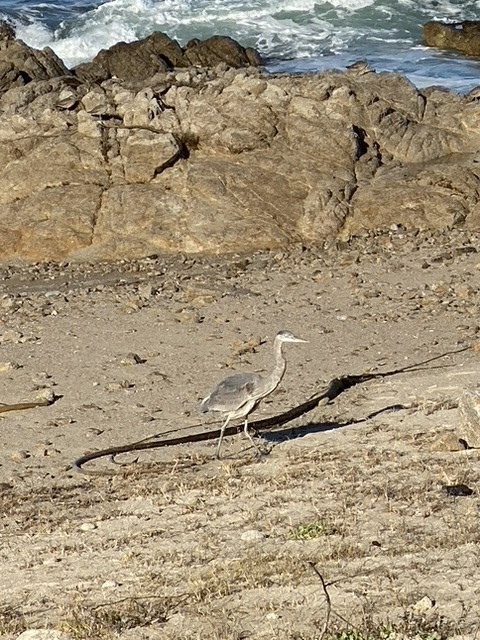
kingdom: Animalia
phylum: Chordata
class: Aves
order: Pelecaniformes
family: Ardeidae
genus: Ardea
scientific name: Ardea herodias
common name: Great blue heron
